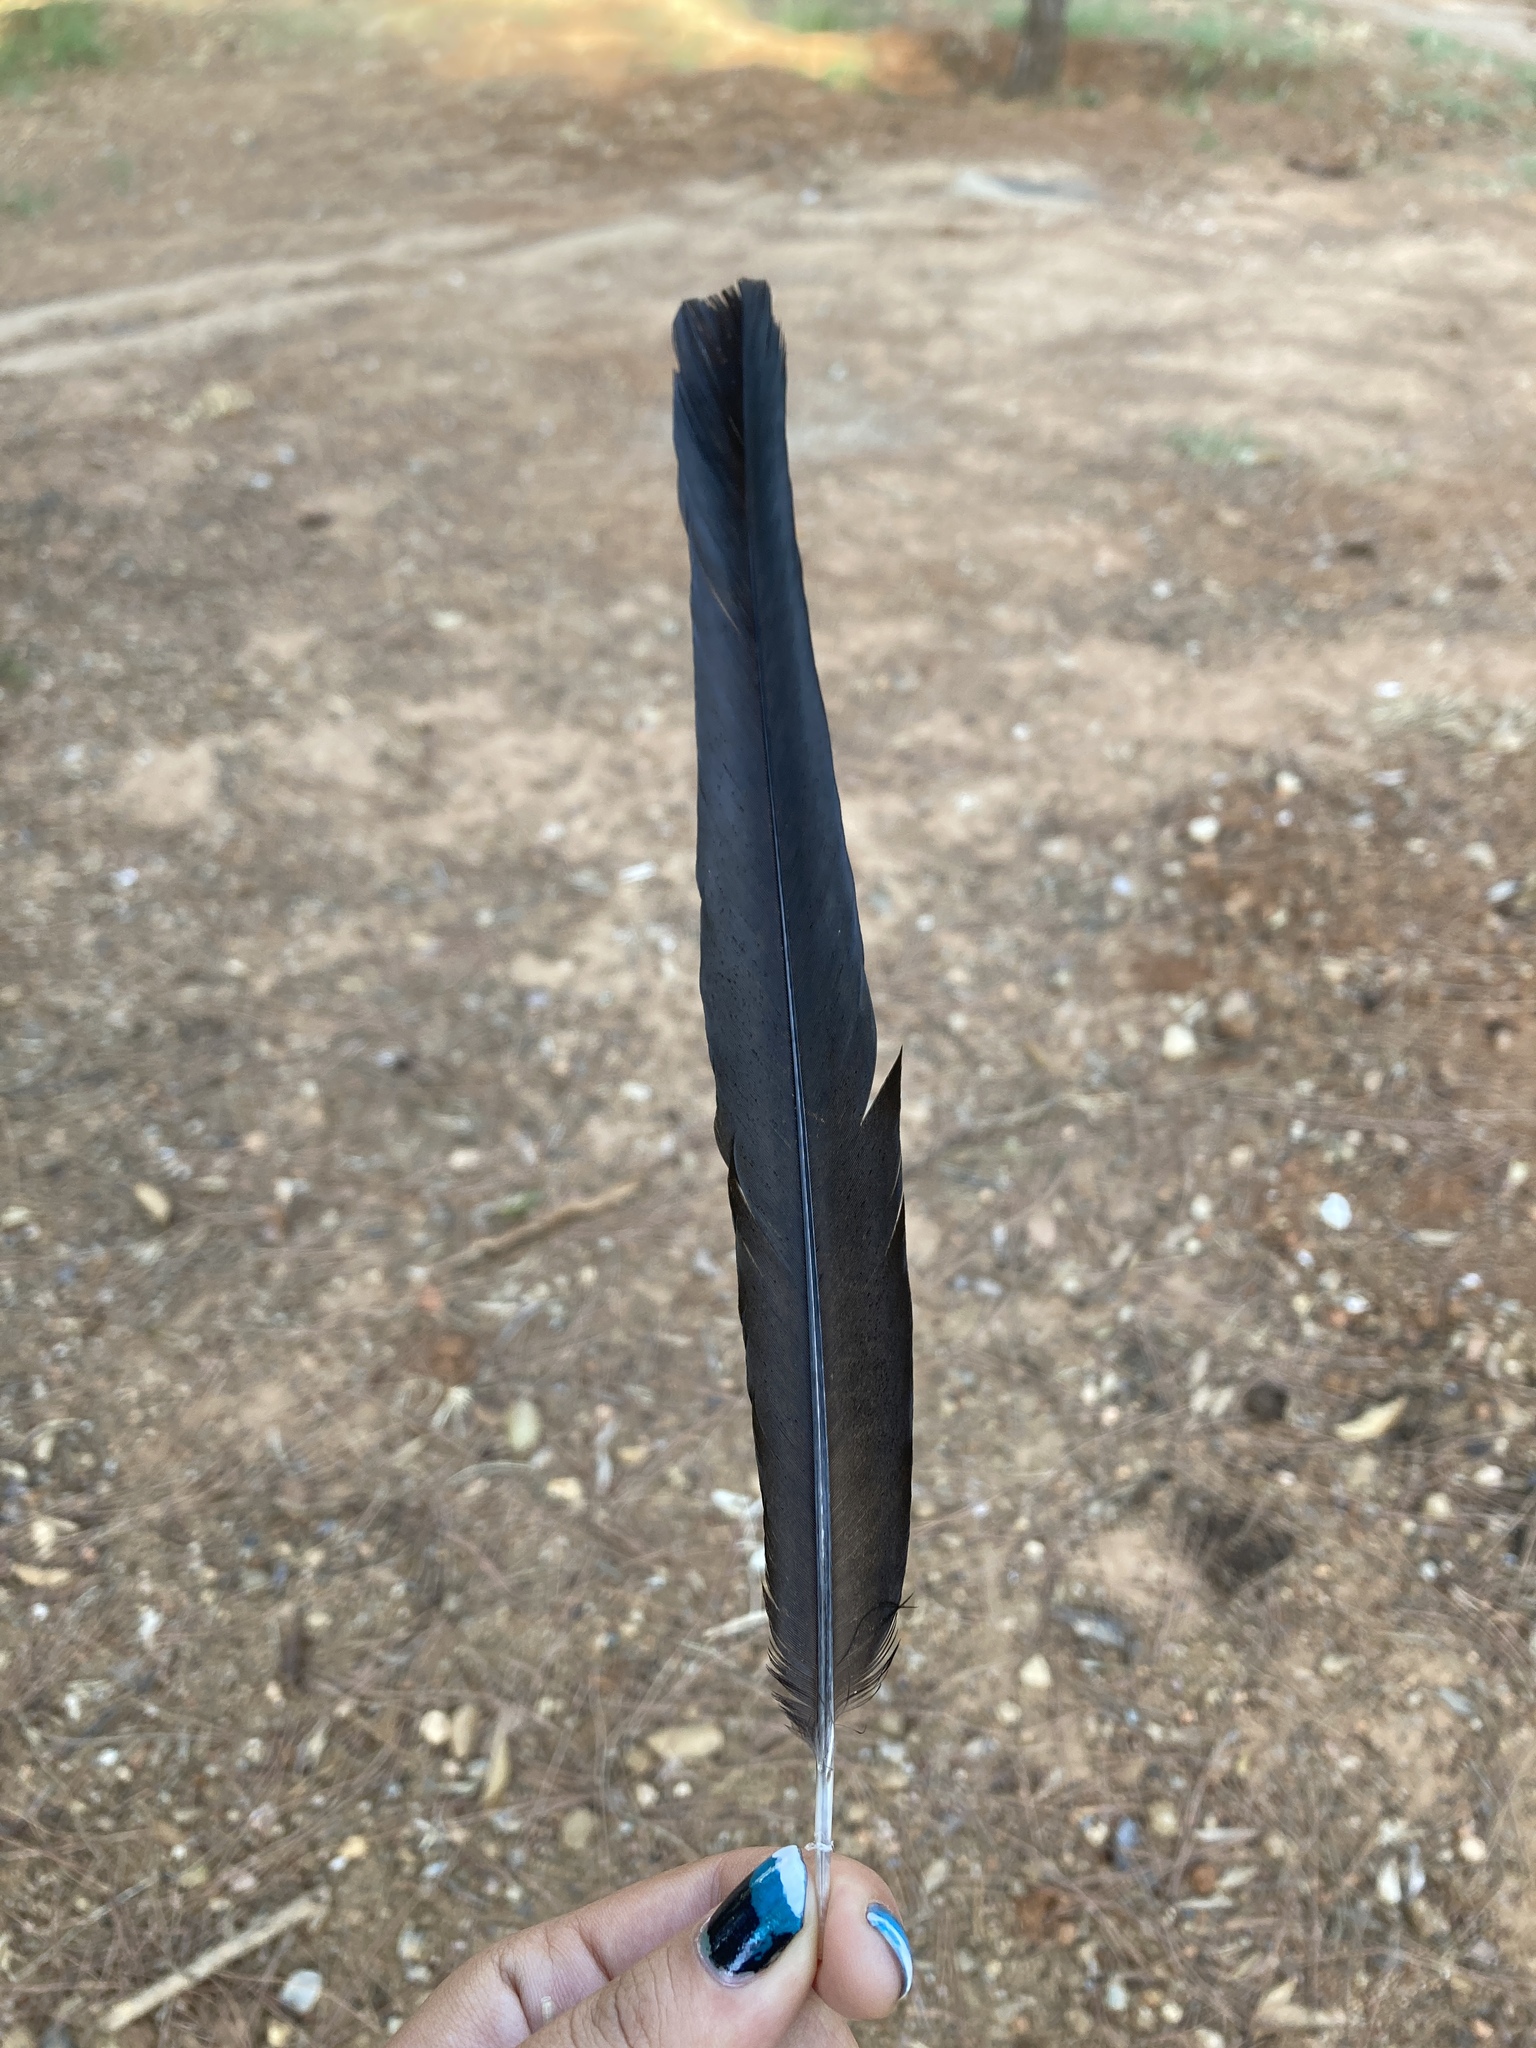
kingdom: Animalia
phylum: Chordata
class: Aves
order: Passeriformes
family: Corvidae
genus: Pica
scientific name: Pica pica
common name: Eurasian magpie
